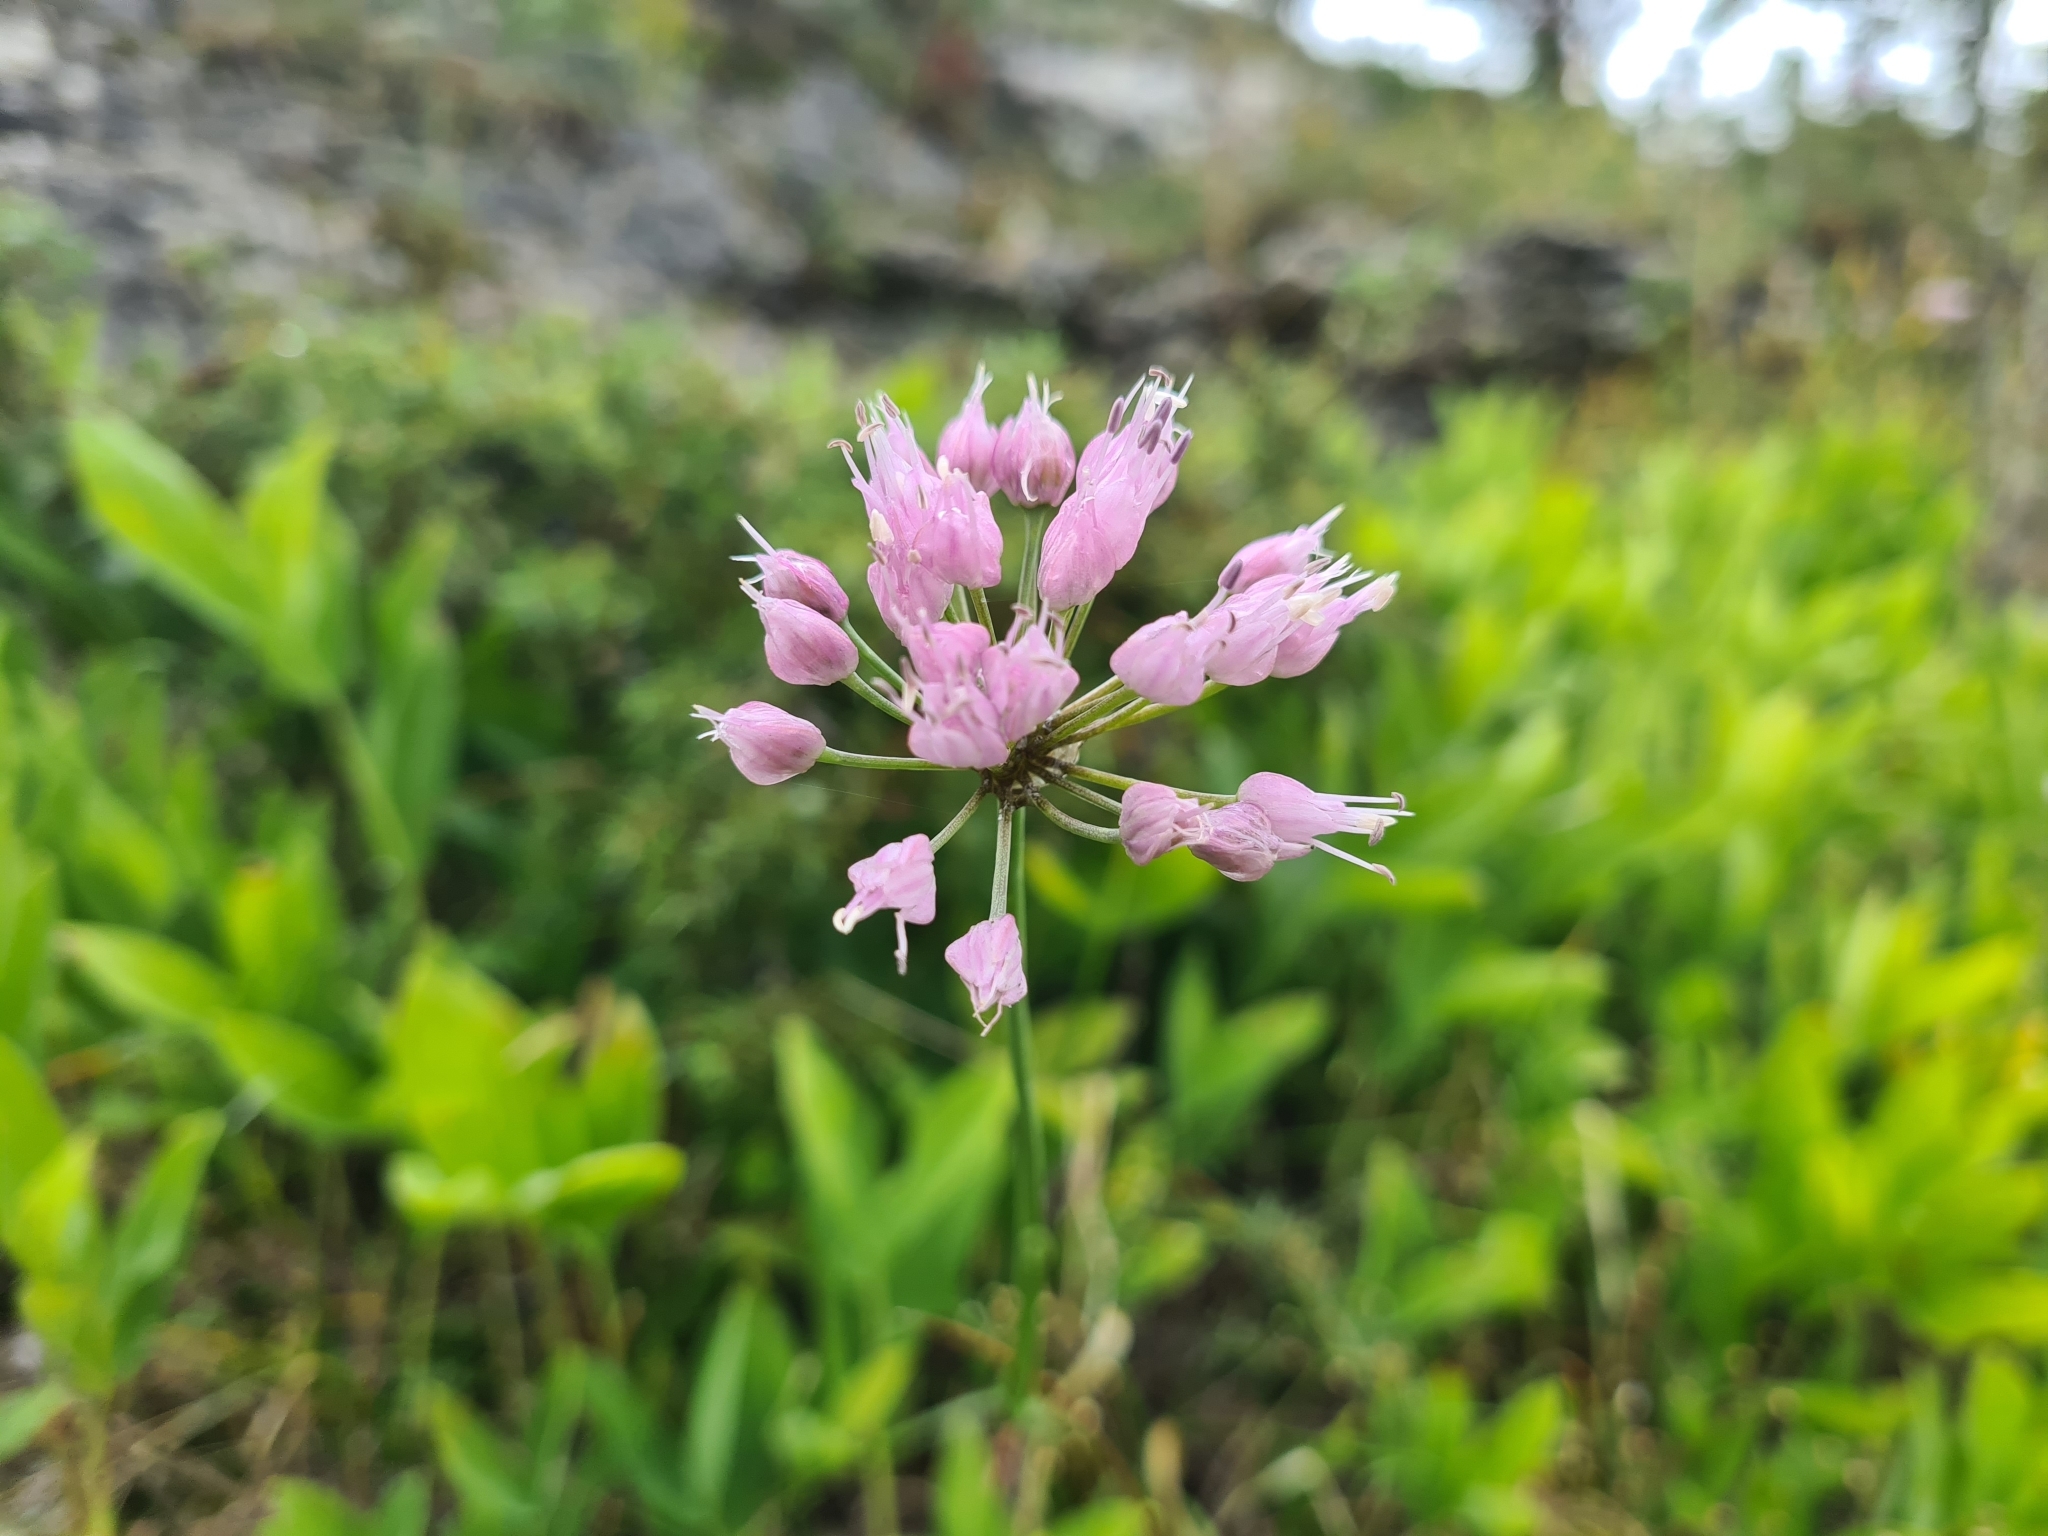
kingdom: Plantae
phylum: Tracheophyta
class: Liliopsida
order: Asparagales
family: Amaryllidaceae
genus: Allium
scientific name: Allium angulosum
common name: Mouse garlic
